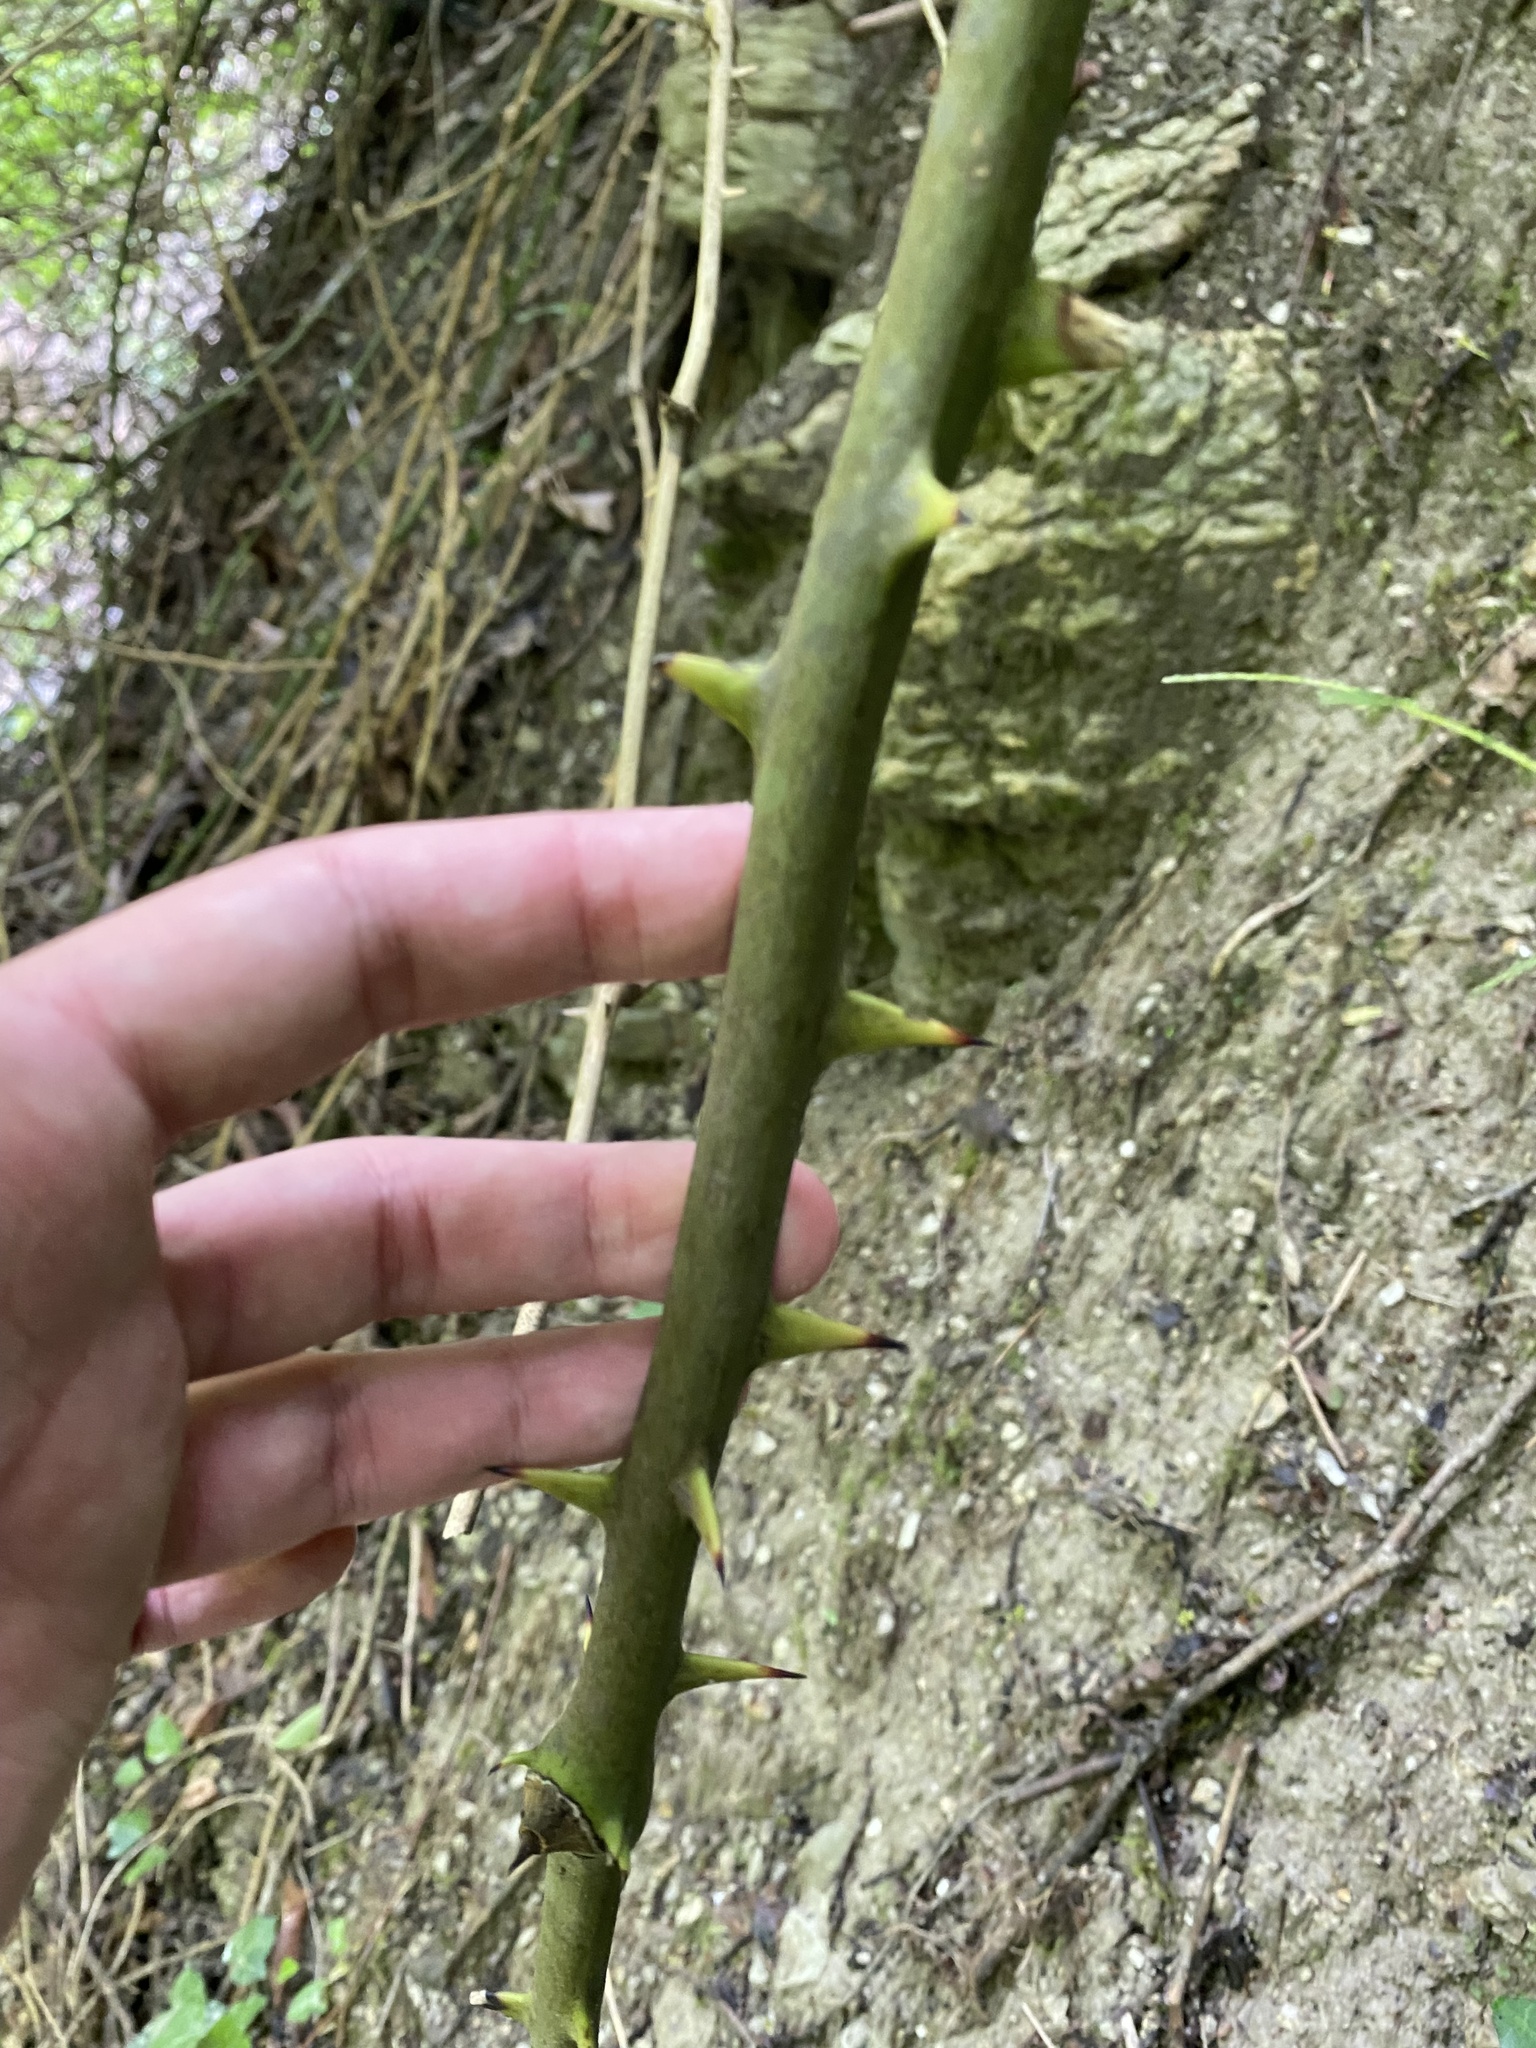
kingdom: Plantae
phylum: Tracheophyta
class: Liliopsida
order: Liliales
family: Smilacaceae
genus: Smilax
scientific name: Smilax excelsa
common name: Larger smilax
